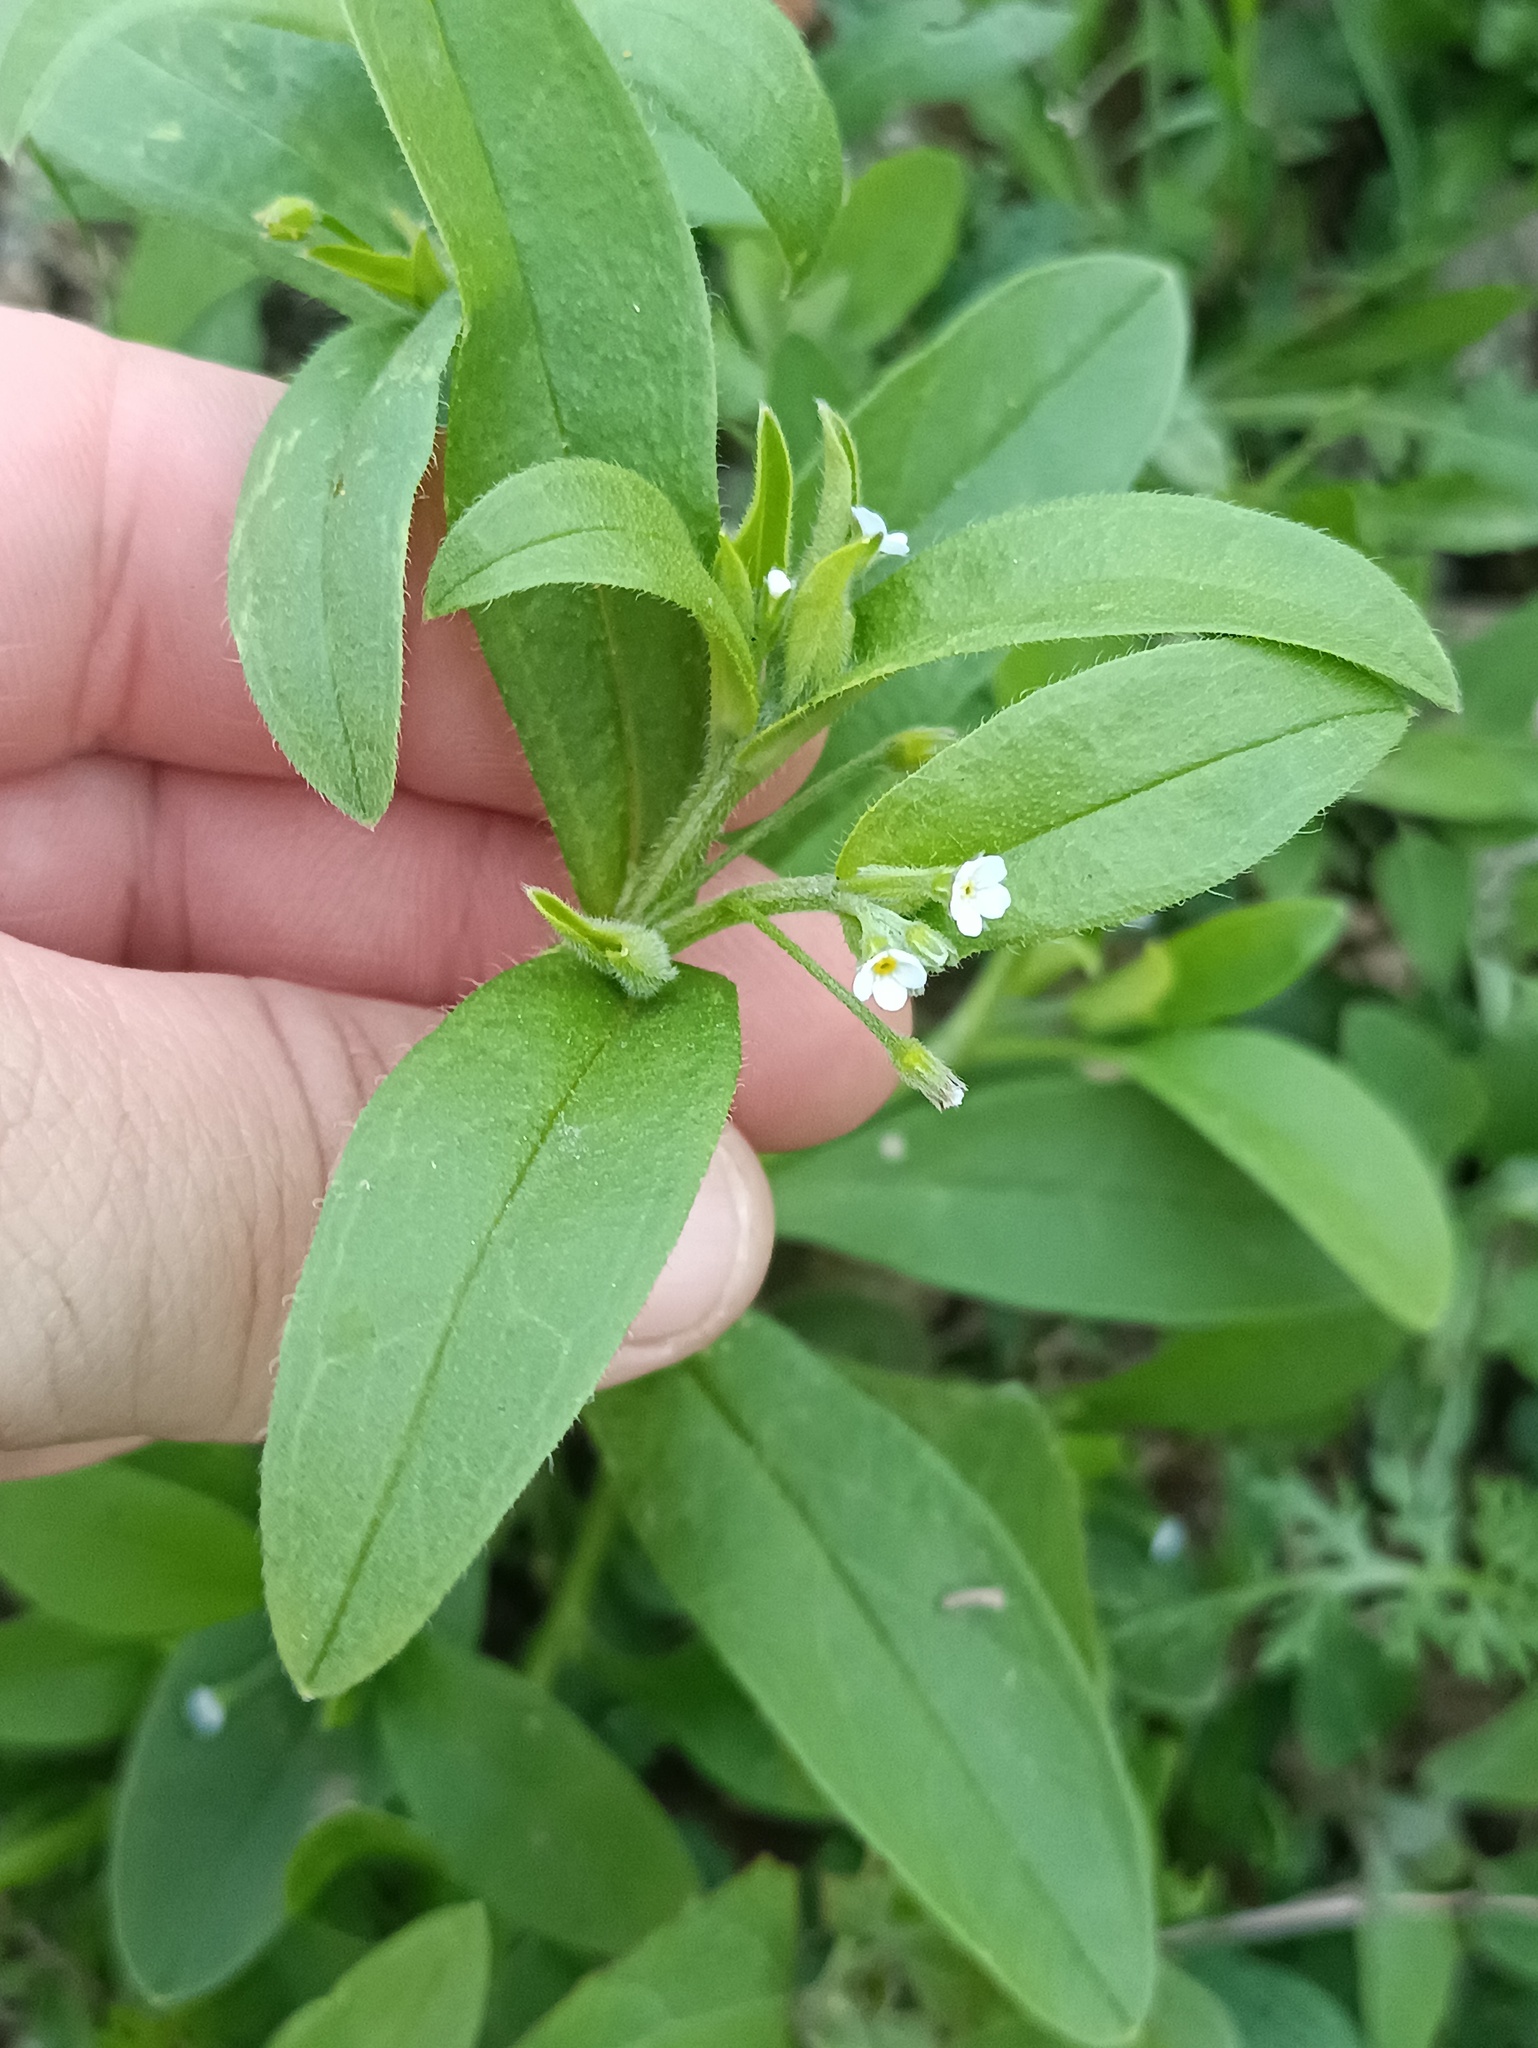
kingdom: Plantae
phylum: Tracheophyta
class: Magnoliopsida
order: Boraginales
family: Boraginaceae
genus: Myosotis
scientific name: Myosotis sparsiflora
